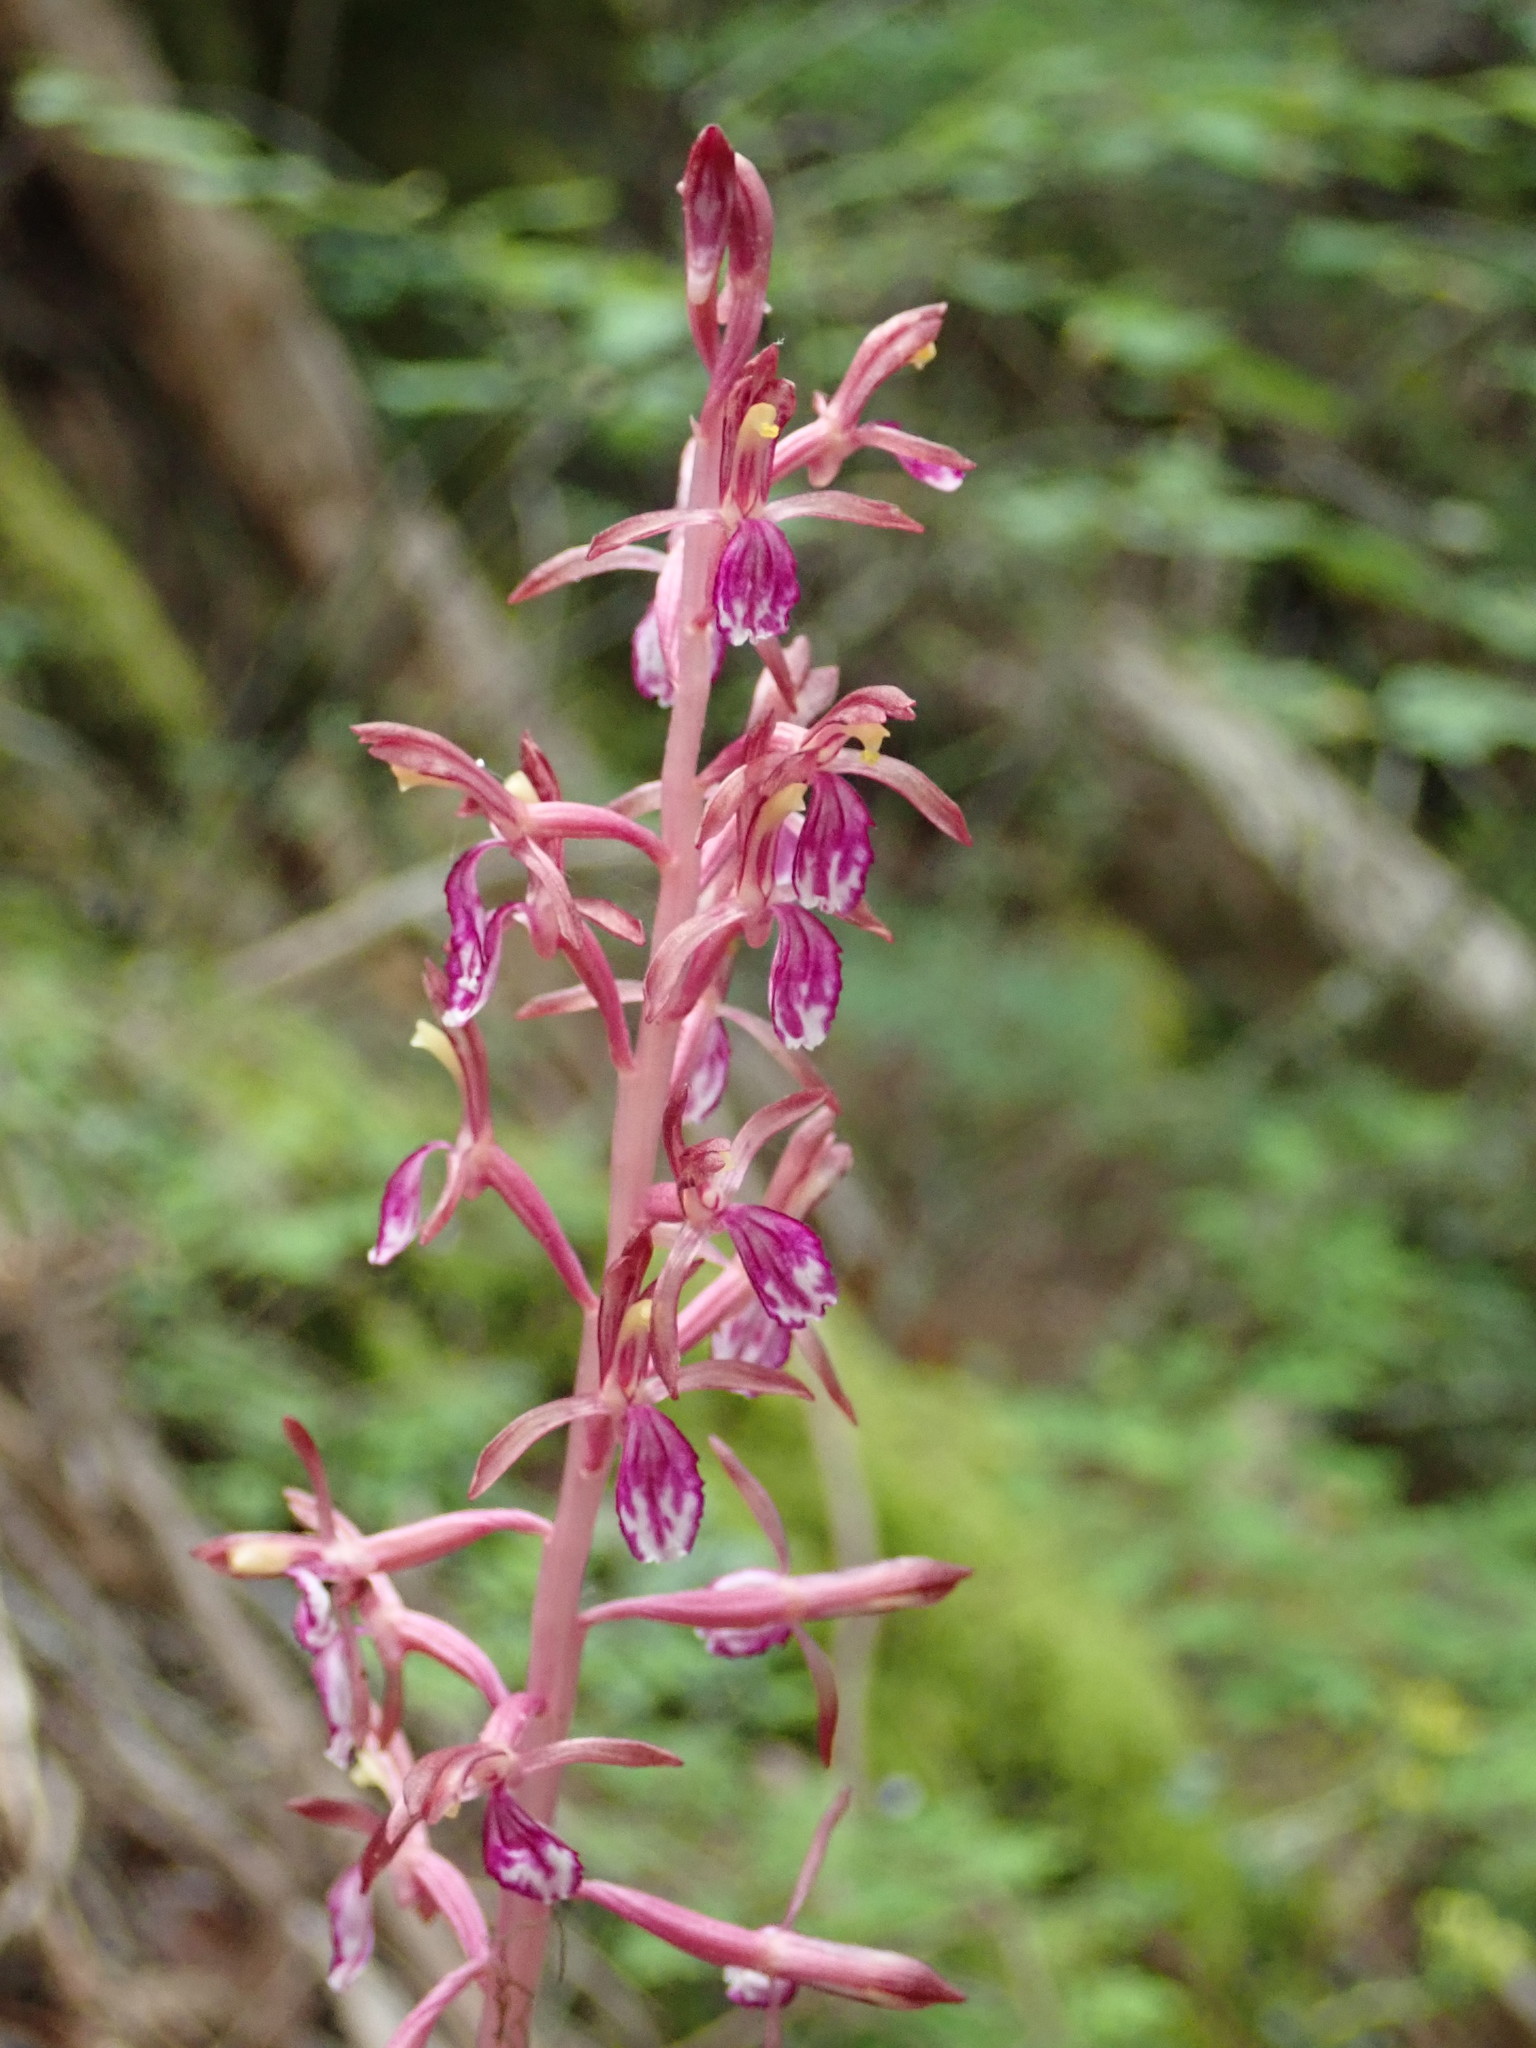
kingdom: Plantae
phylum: Tracheophyta
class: Liliopsida
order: Asparagales
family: Orchidaceae
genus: Corallorhiza
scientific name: Corallorhiza mertensiana
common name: Pacific coralroot
